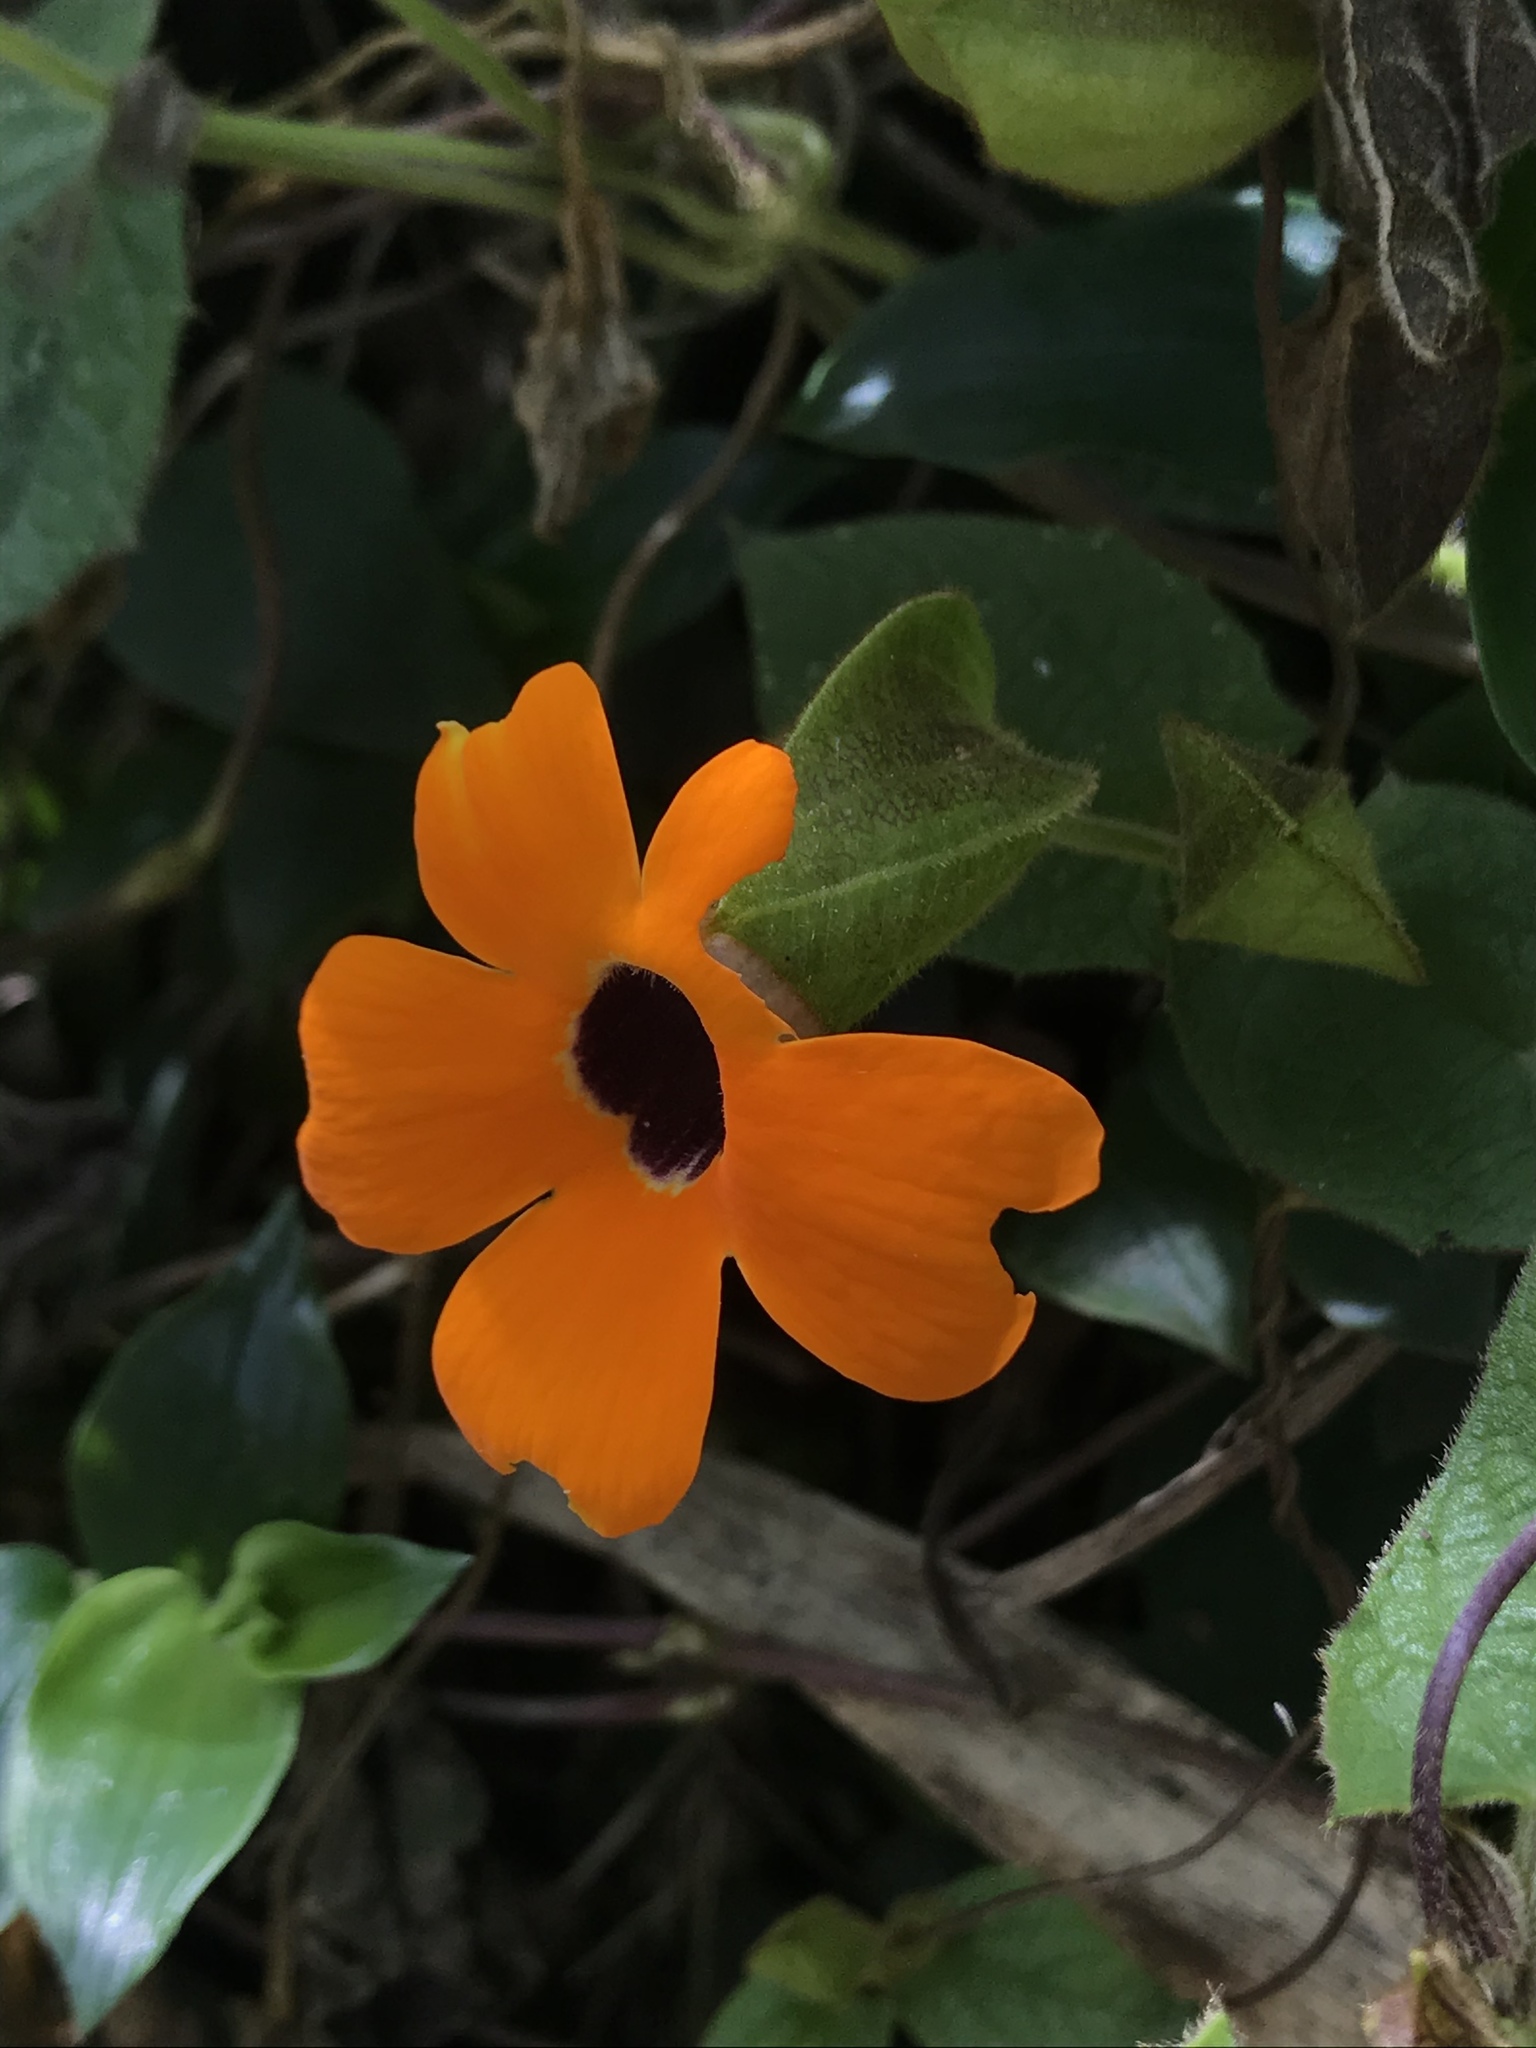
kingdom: Plantae
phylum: Tracheophyta
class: Magnoliopsida
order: Lamiales
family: Acanthaceae
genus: Thunbergia
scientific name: Thunbergia alata
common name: Blackeyed susan vine
